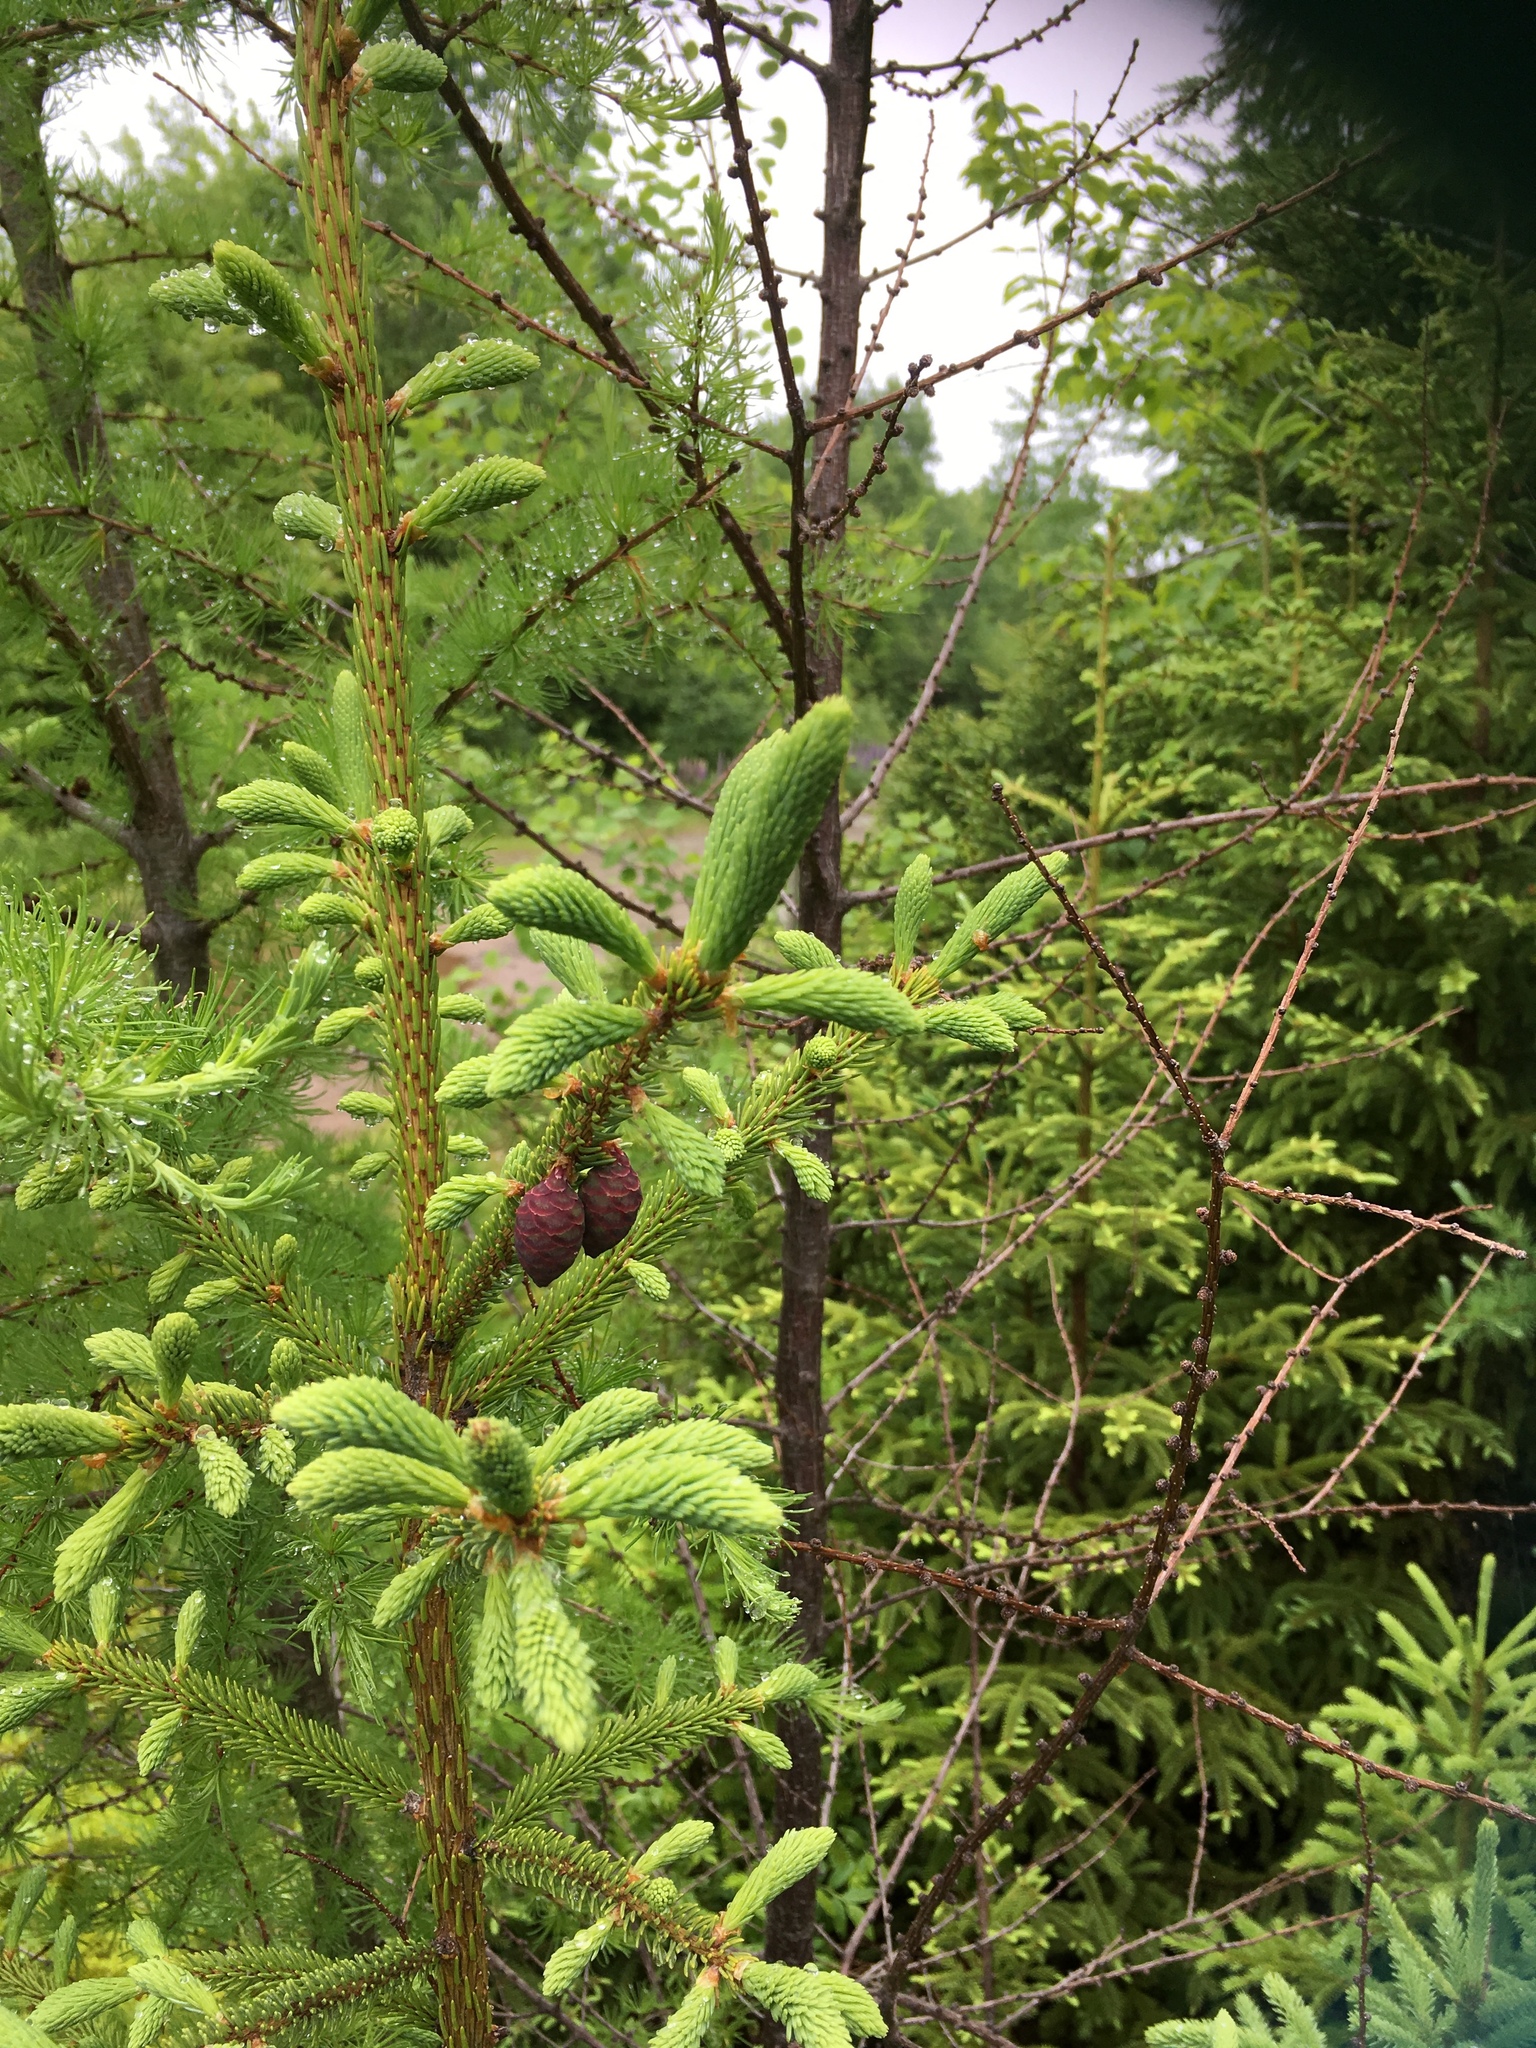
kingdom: Plantae
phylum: Tracheophyta
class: Pinopsida
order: Pinales
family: Pinaceae
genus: Picea
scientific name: Picea mariana
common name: Black spruce
